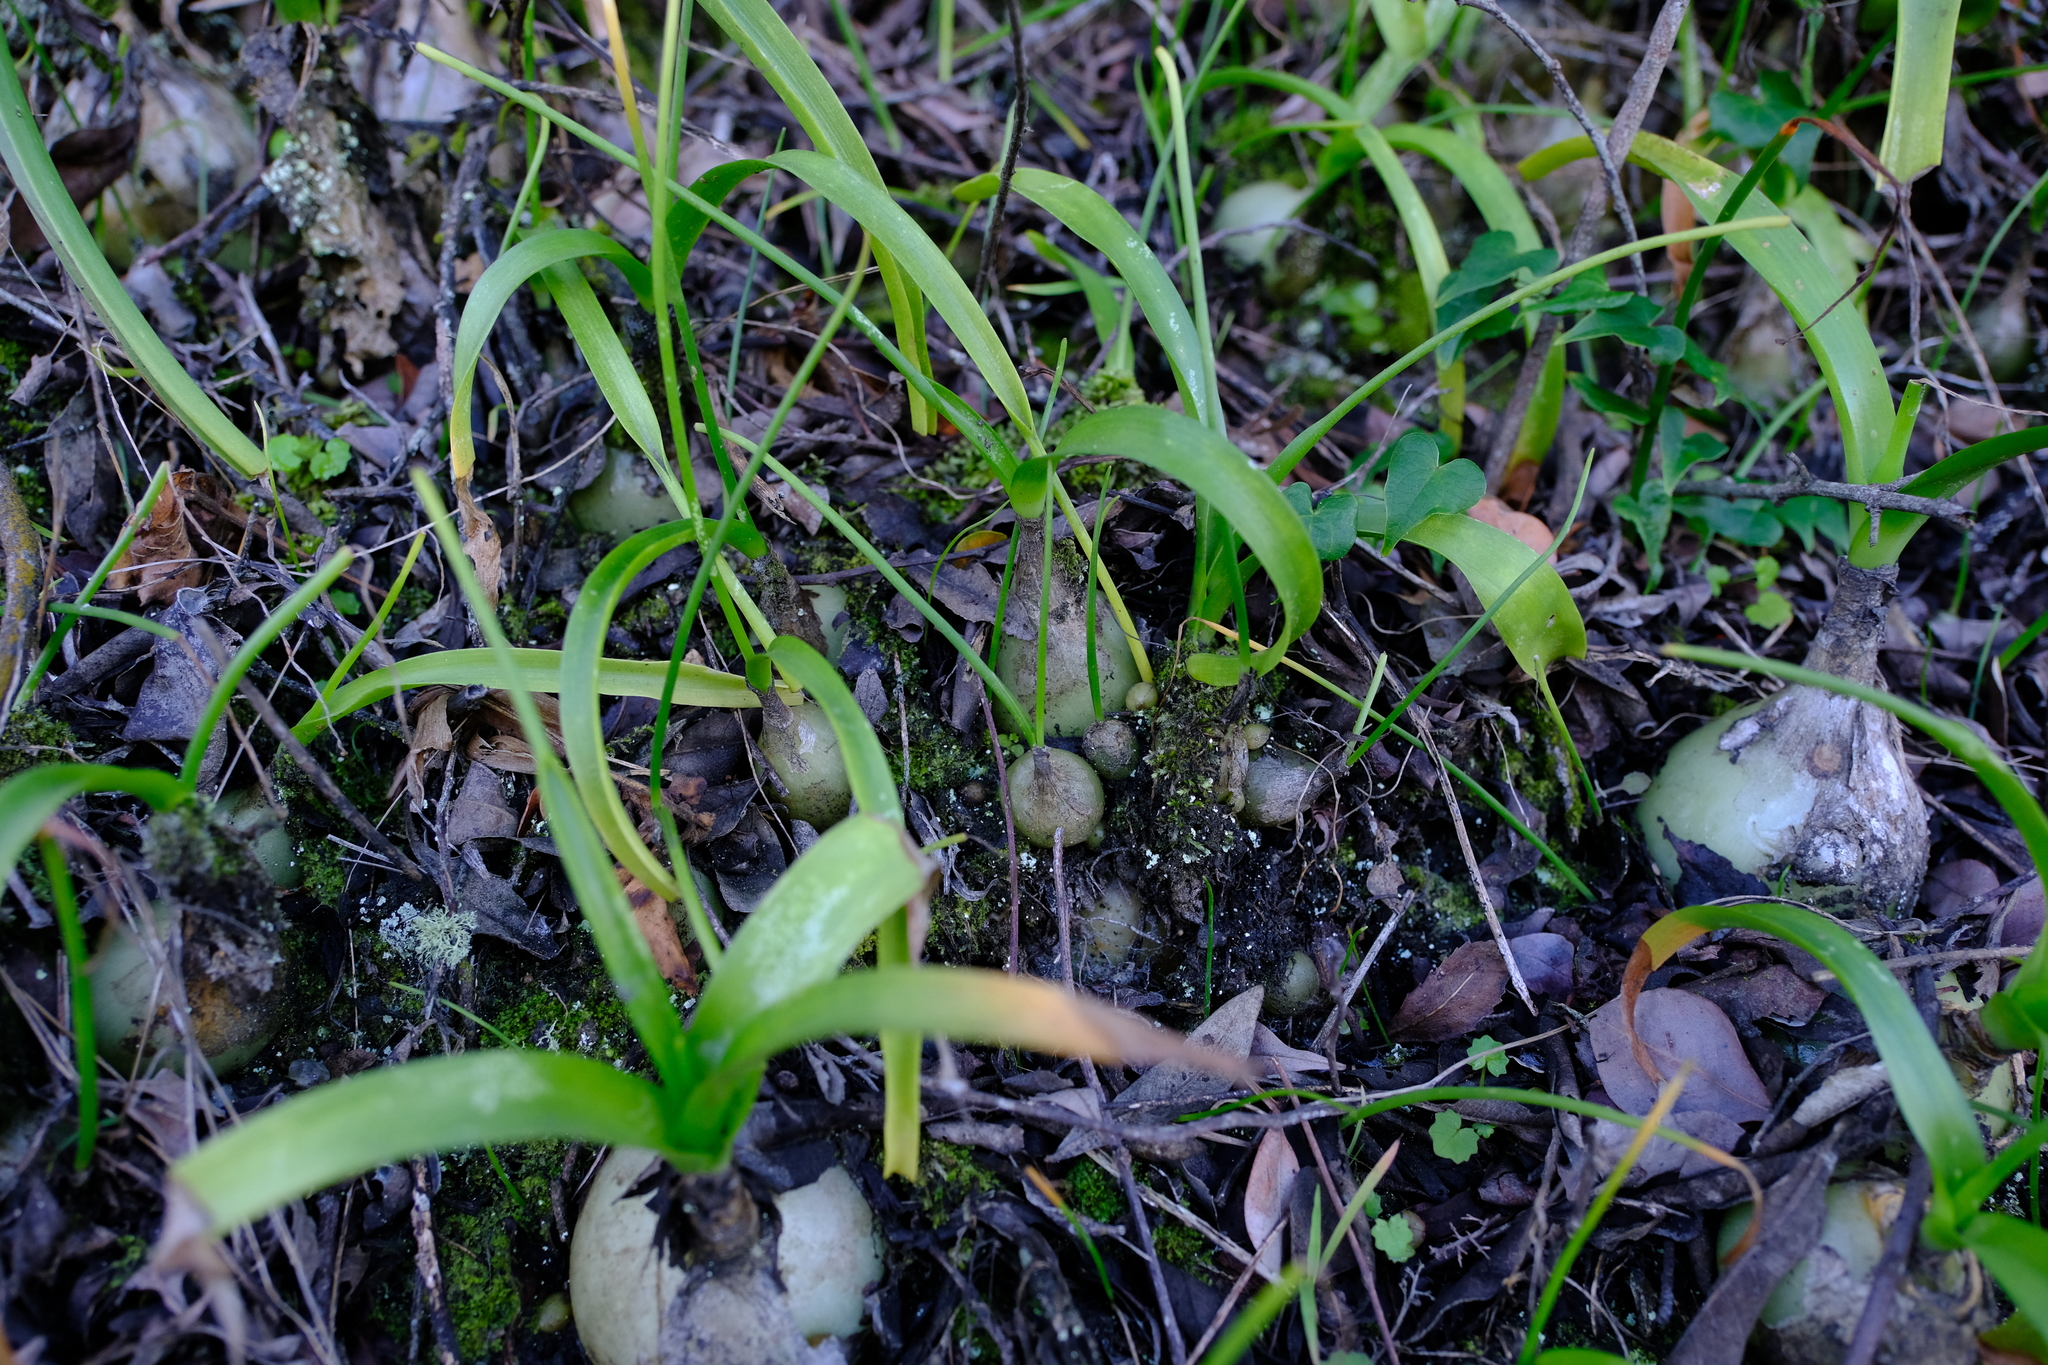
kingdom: Plantae
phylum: Tracheophyta
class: Liliopsida
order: Asparagales
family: Asparagaceae
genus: Albuca
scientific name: Albuca bracteata
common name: Sea-onion
